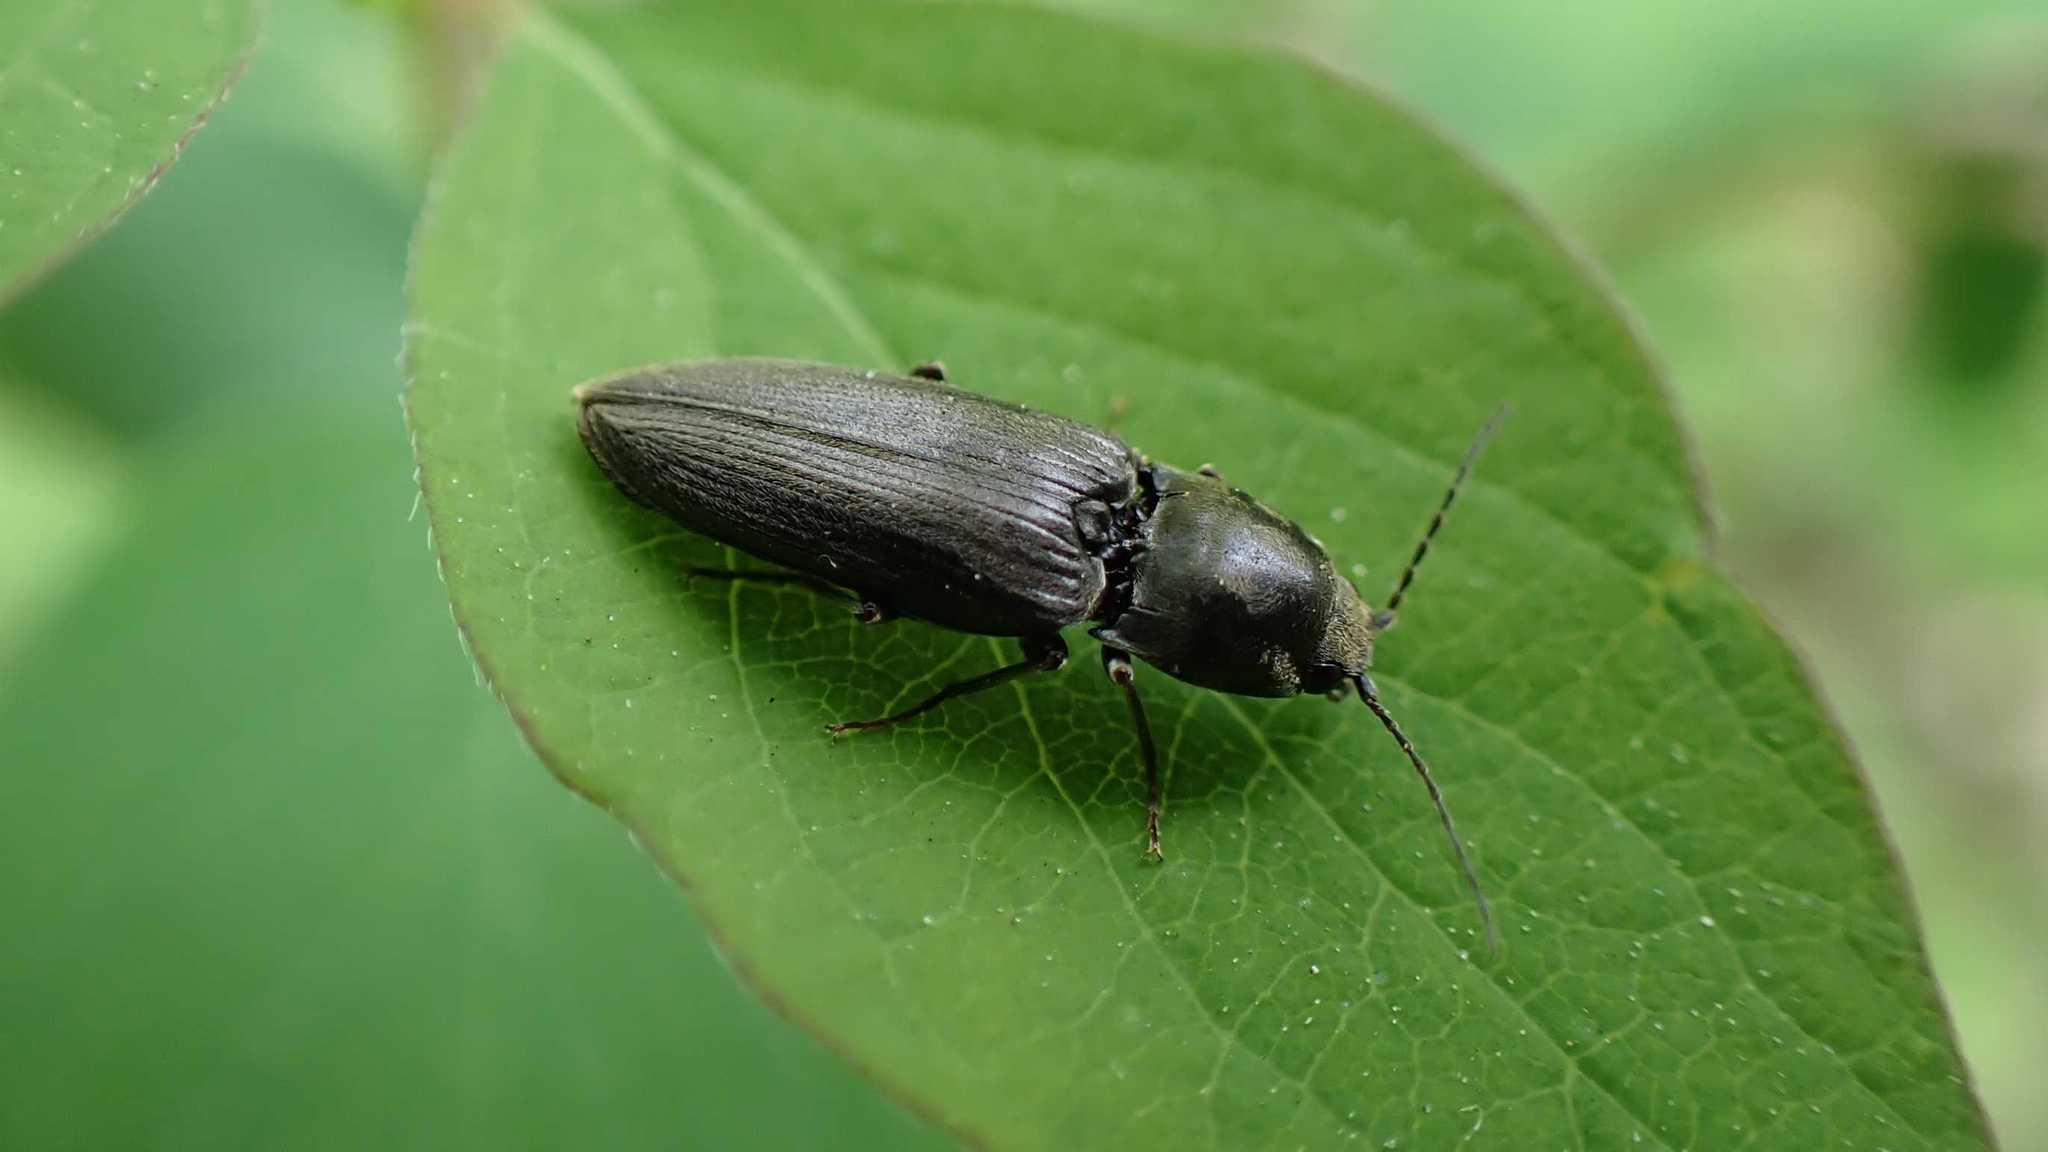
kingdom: Animalia
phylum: Arthropoda
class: Insecta
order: Coleoptera
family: Elateridae
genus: Dicronychus
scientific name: Dicronychus
